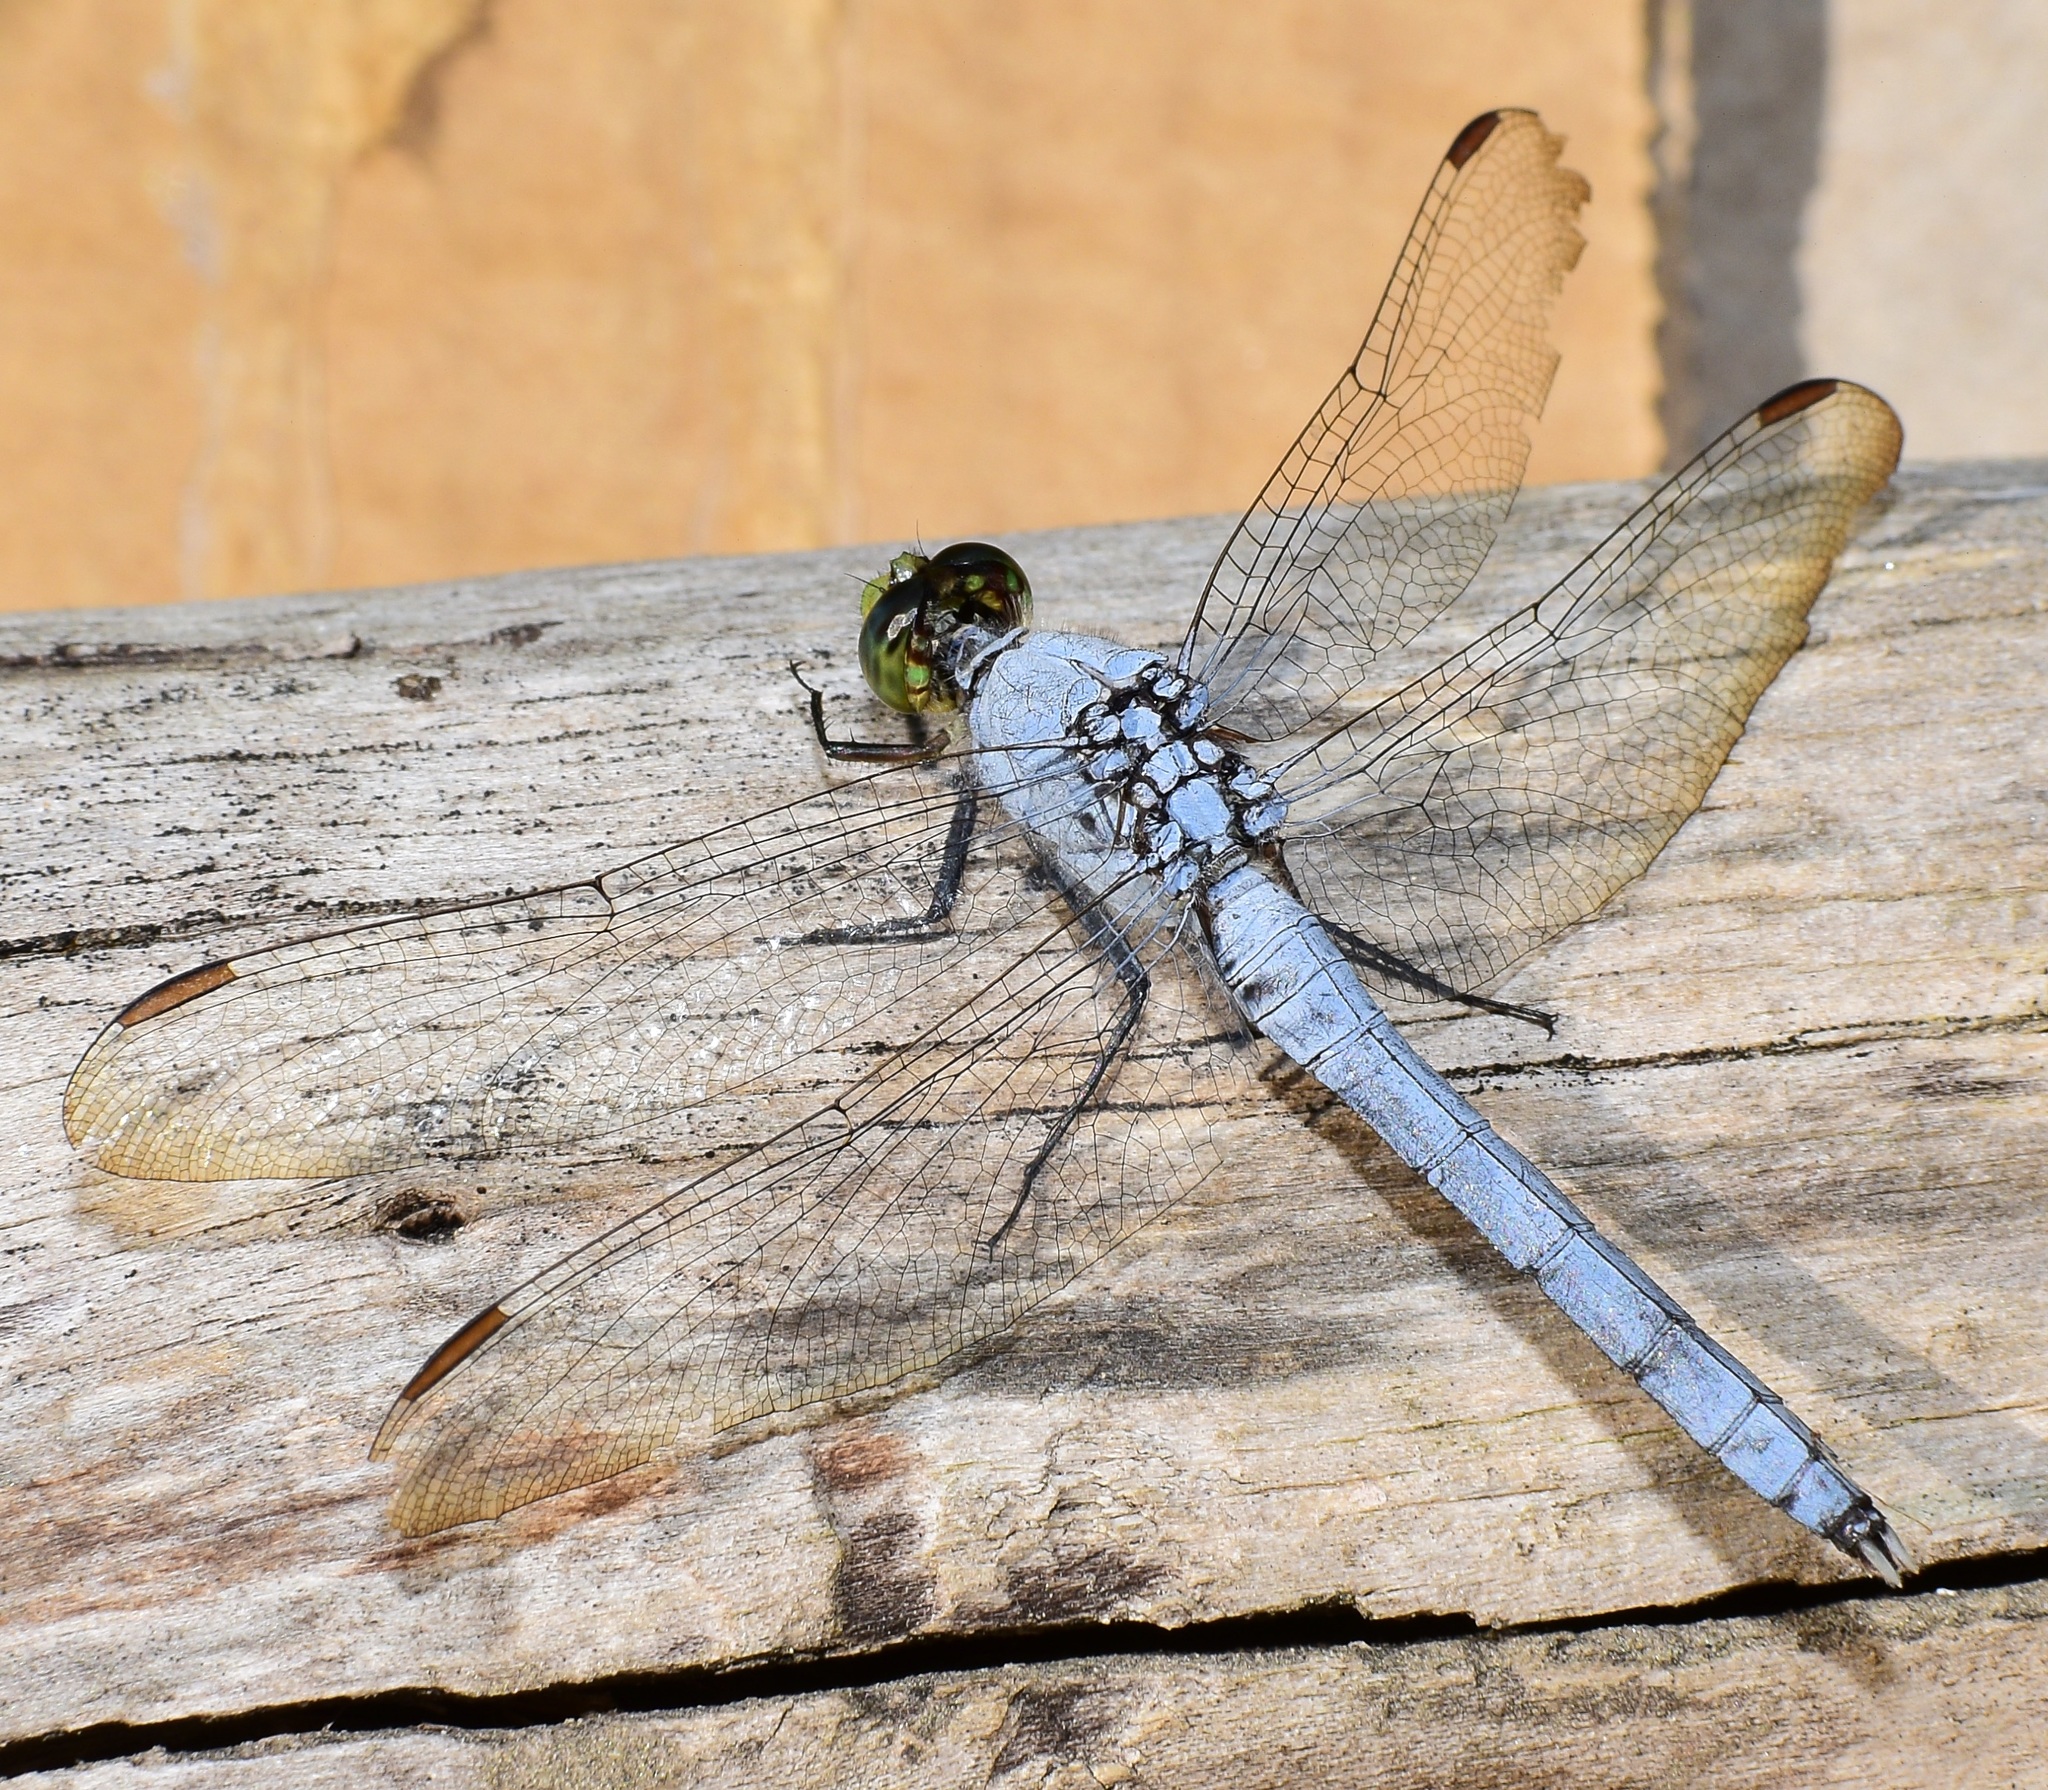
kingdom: Animalia
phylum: Arthropoda
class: Insecta
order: Odonata
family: Libellulidae
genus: Erythemis
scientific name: Erythemis simplicicollis
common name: Eastern pondhawk
